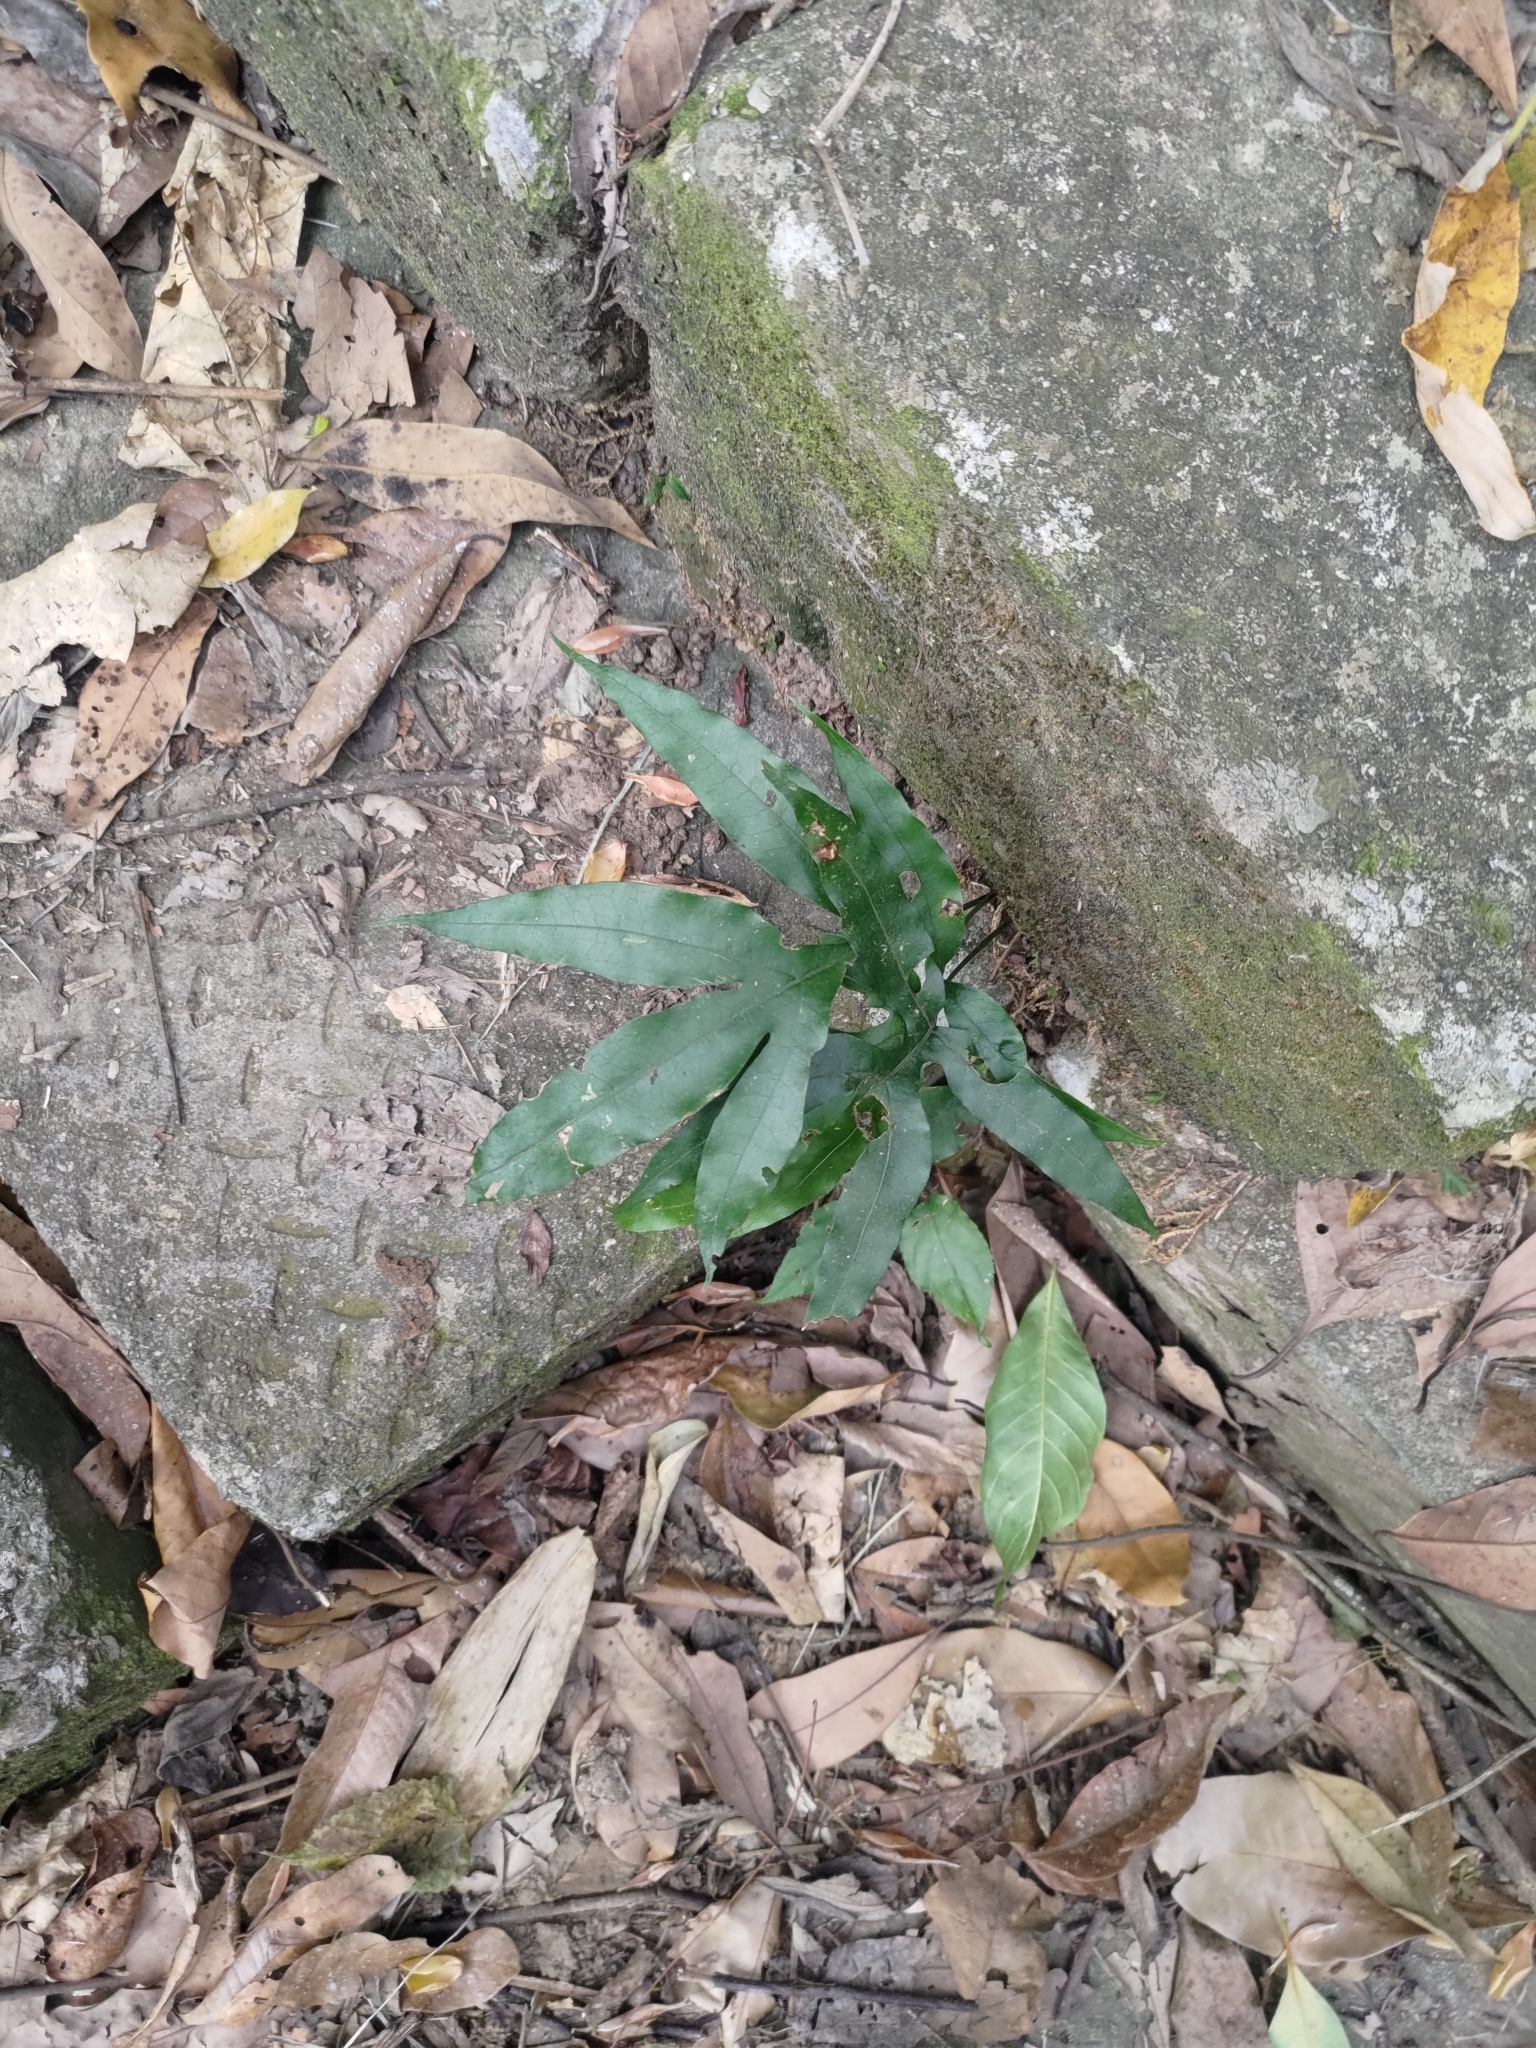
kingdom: Plantae
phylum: Tracheophyta
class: Polypodiopsida
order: Polypodiales
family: Polypodiaceae
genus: Leptochilus
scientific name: Leptochilus ellipticus
